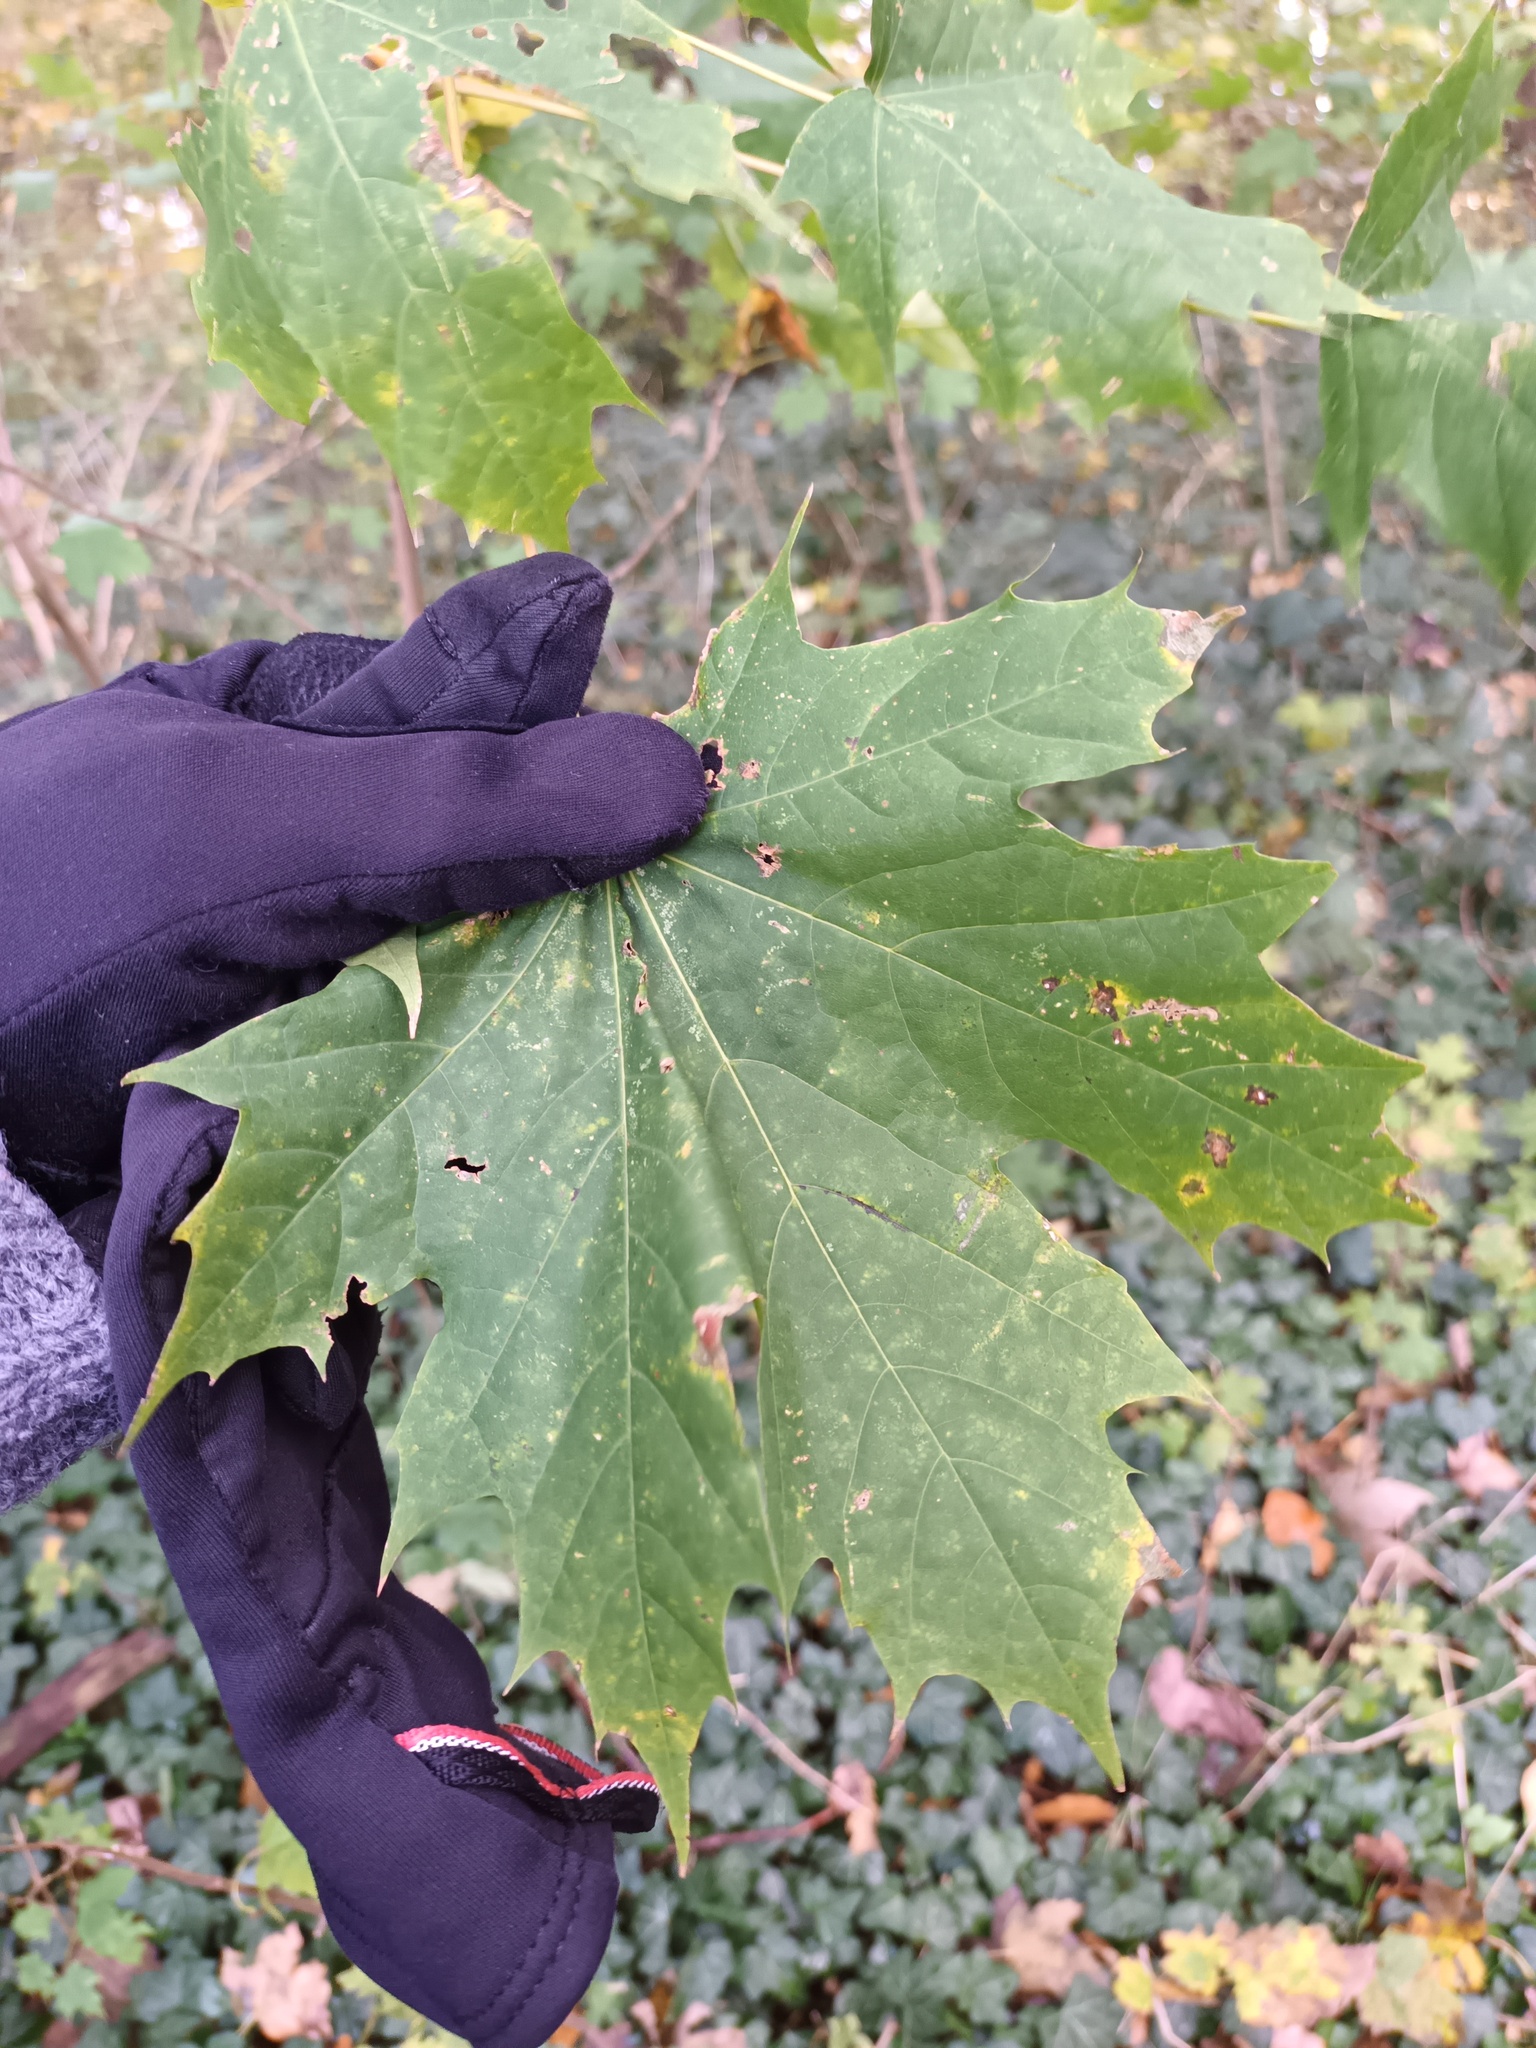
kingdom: Plantae
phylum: Tracheophyta
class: Magnoliopsida
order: Sapindales
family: Sapindaceae
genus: Acer
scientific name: Acer platanoides
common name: Norway maple
